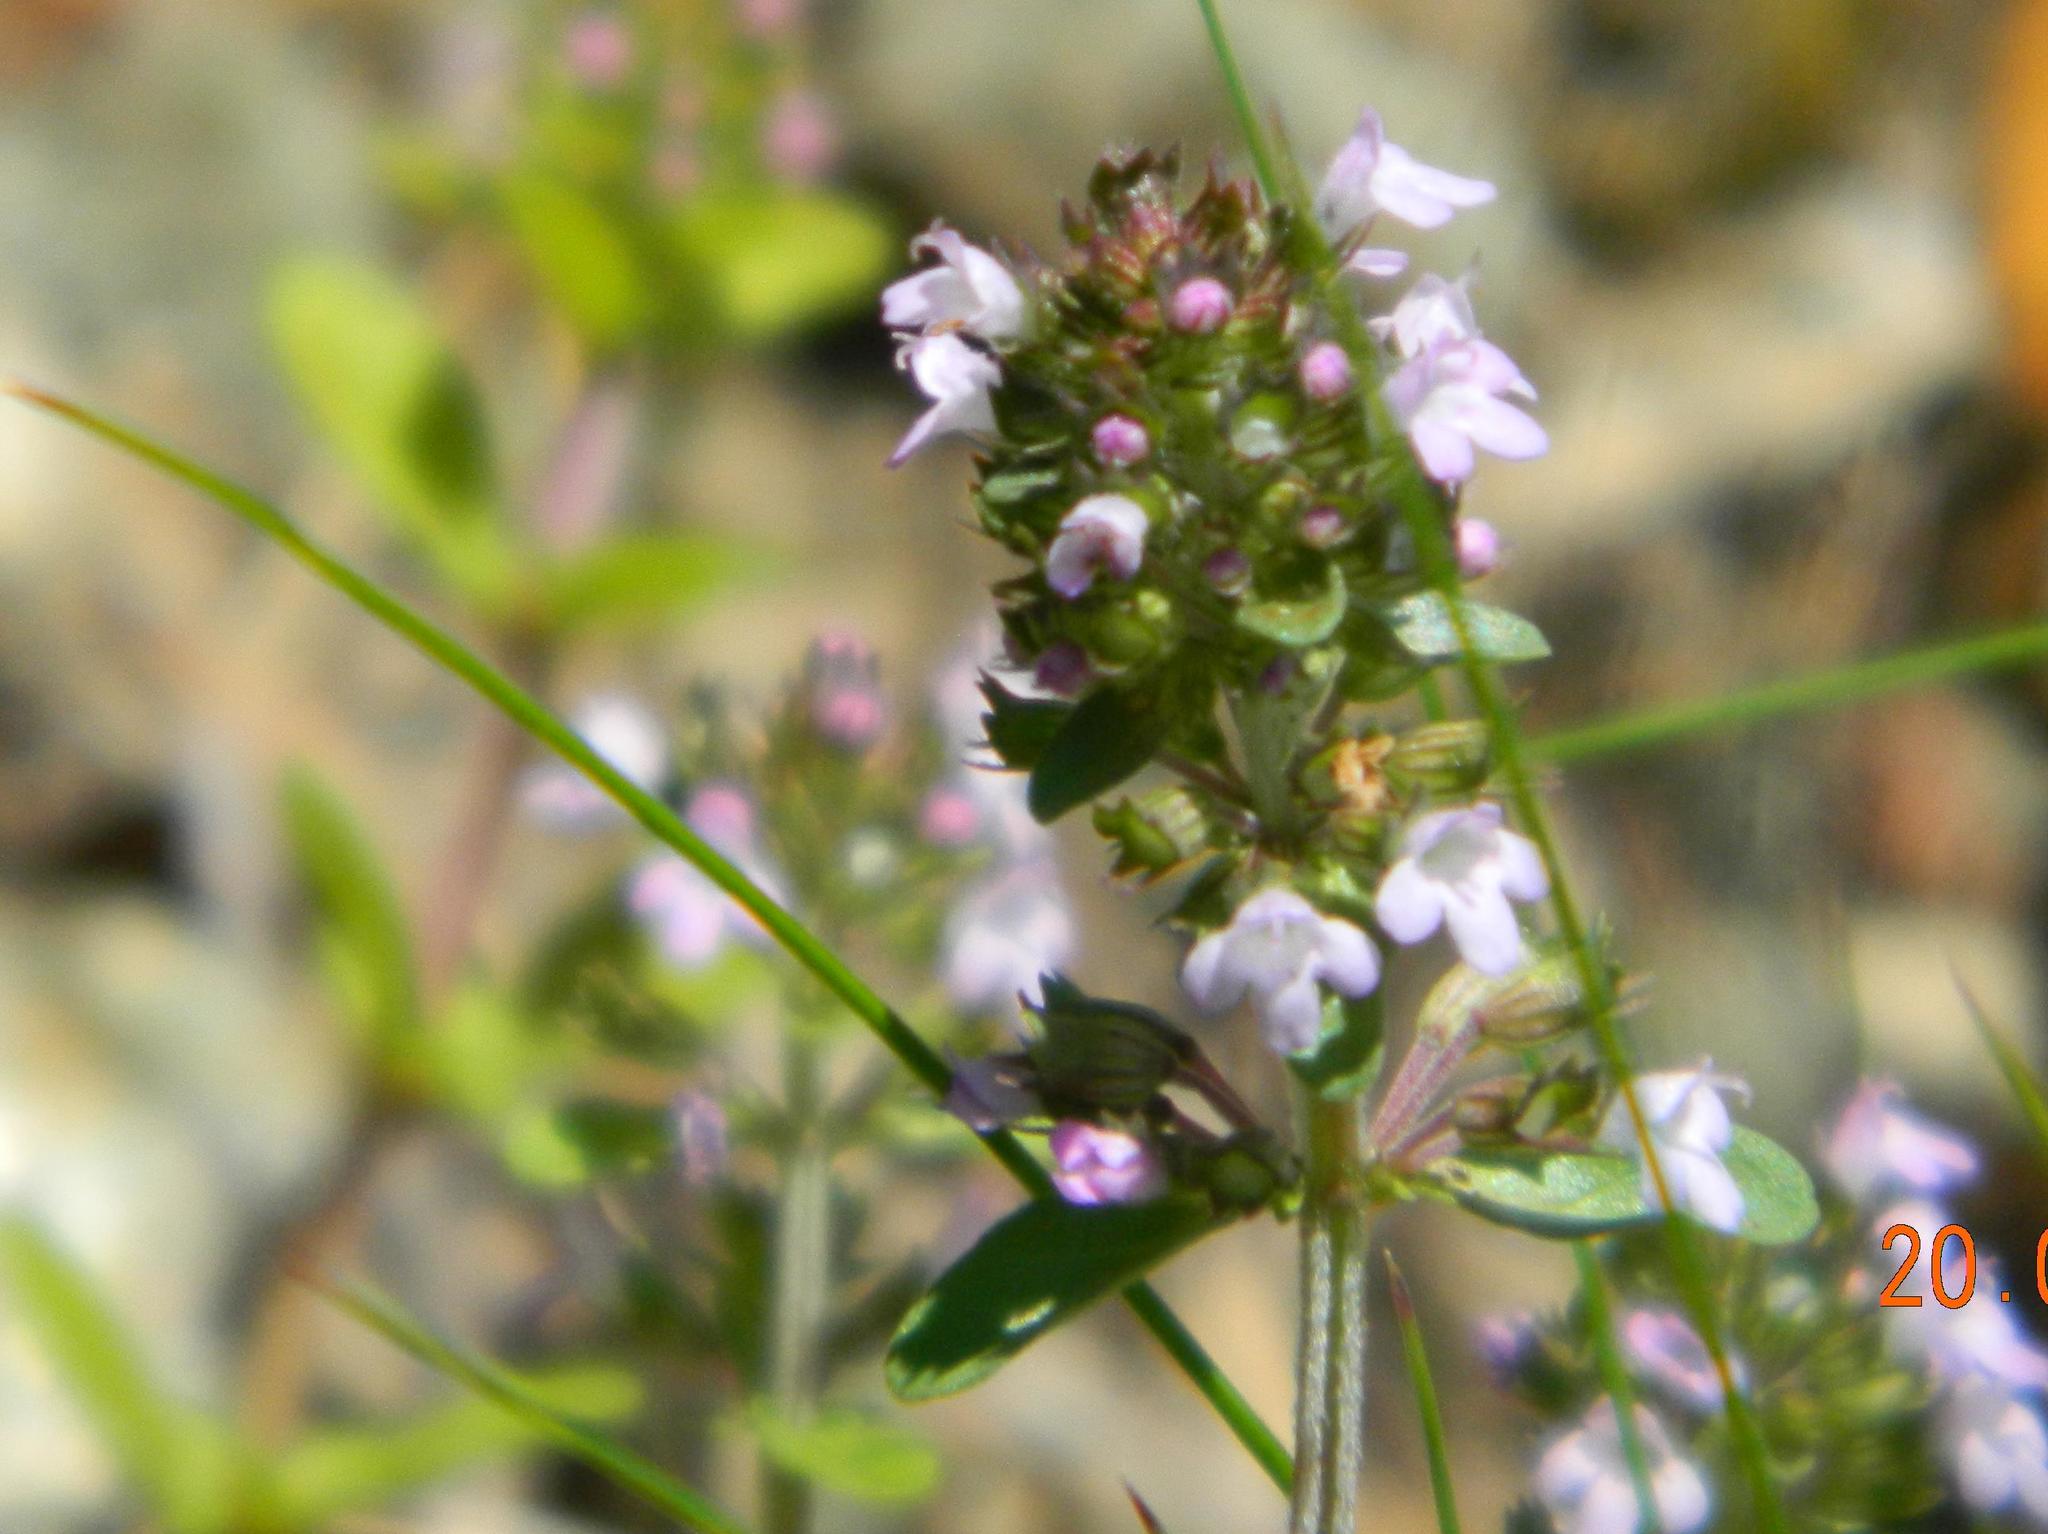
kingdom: Plantae
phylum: Tracheophyta
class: Magnoliopsida
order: Lamiales
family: Lamiaceae
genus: Thymus
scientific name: Thymus pulegioides
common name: Large thyme
